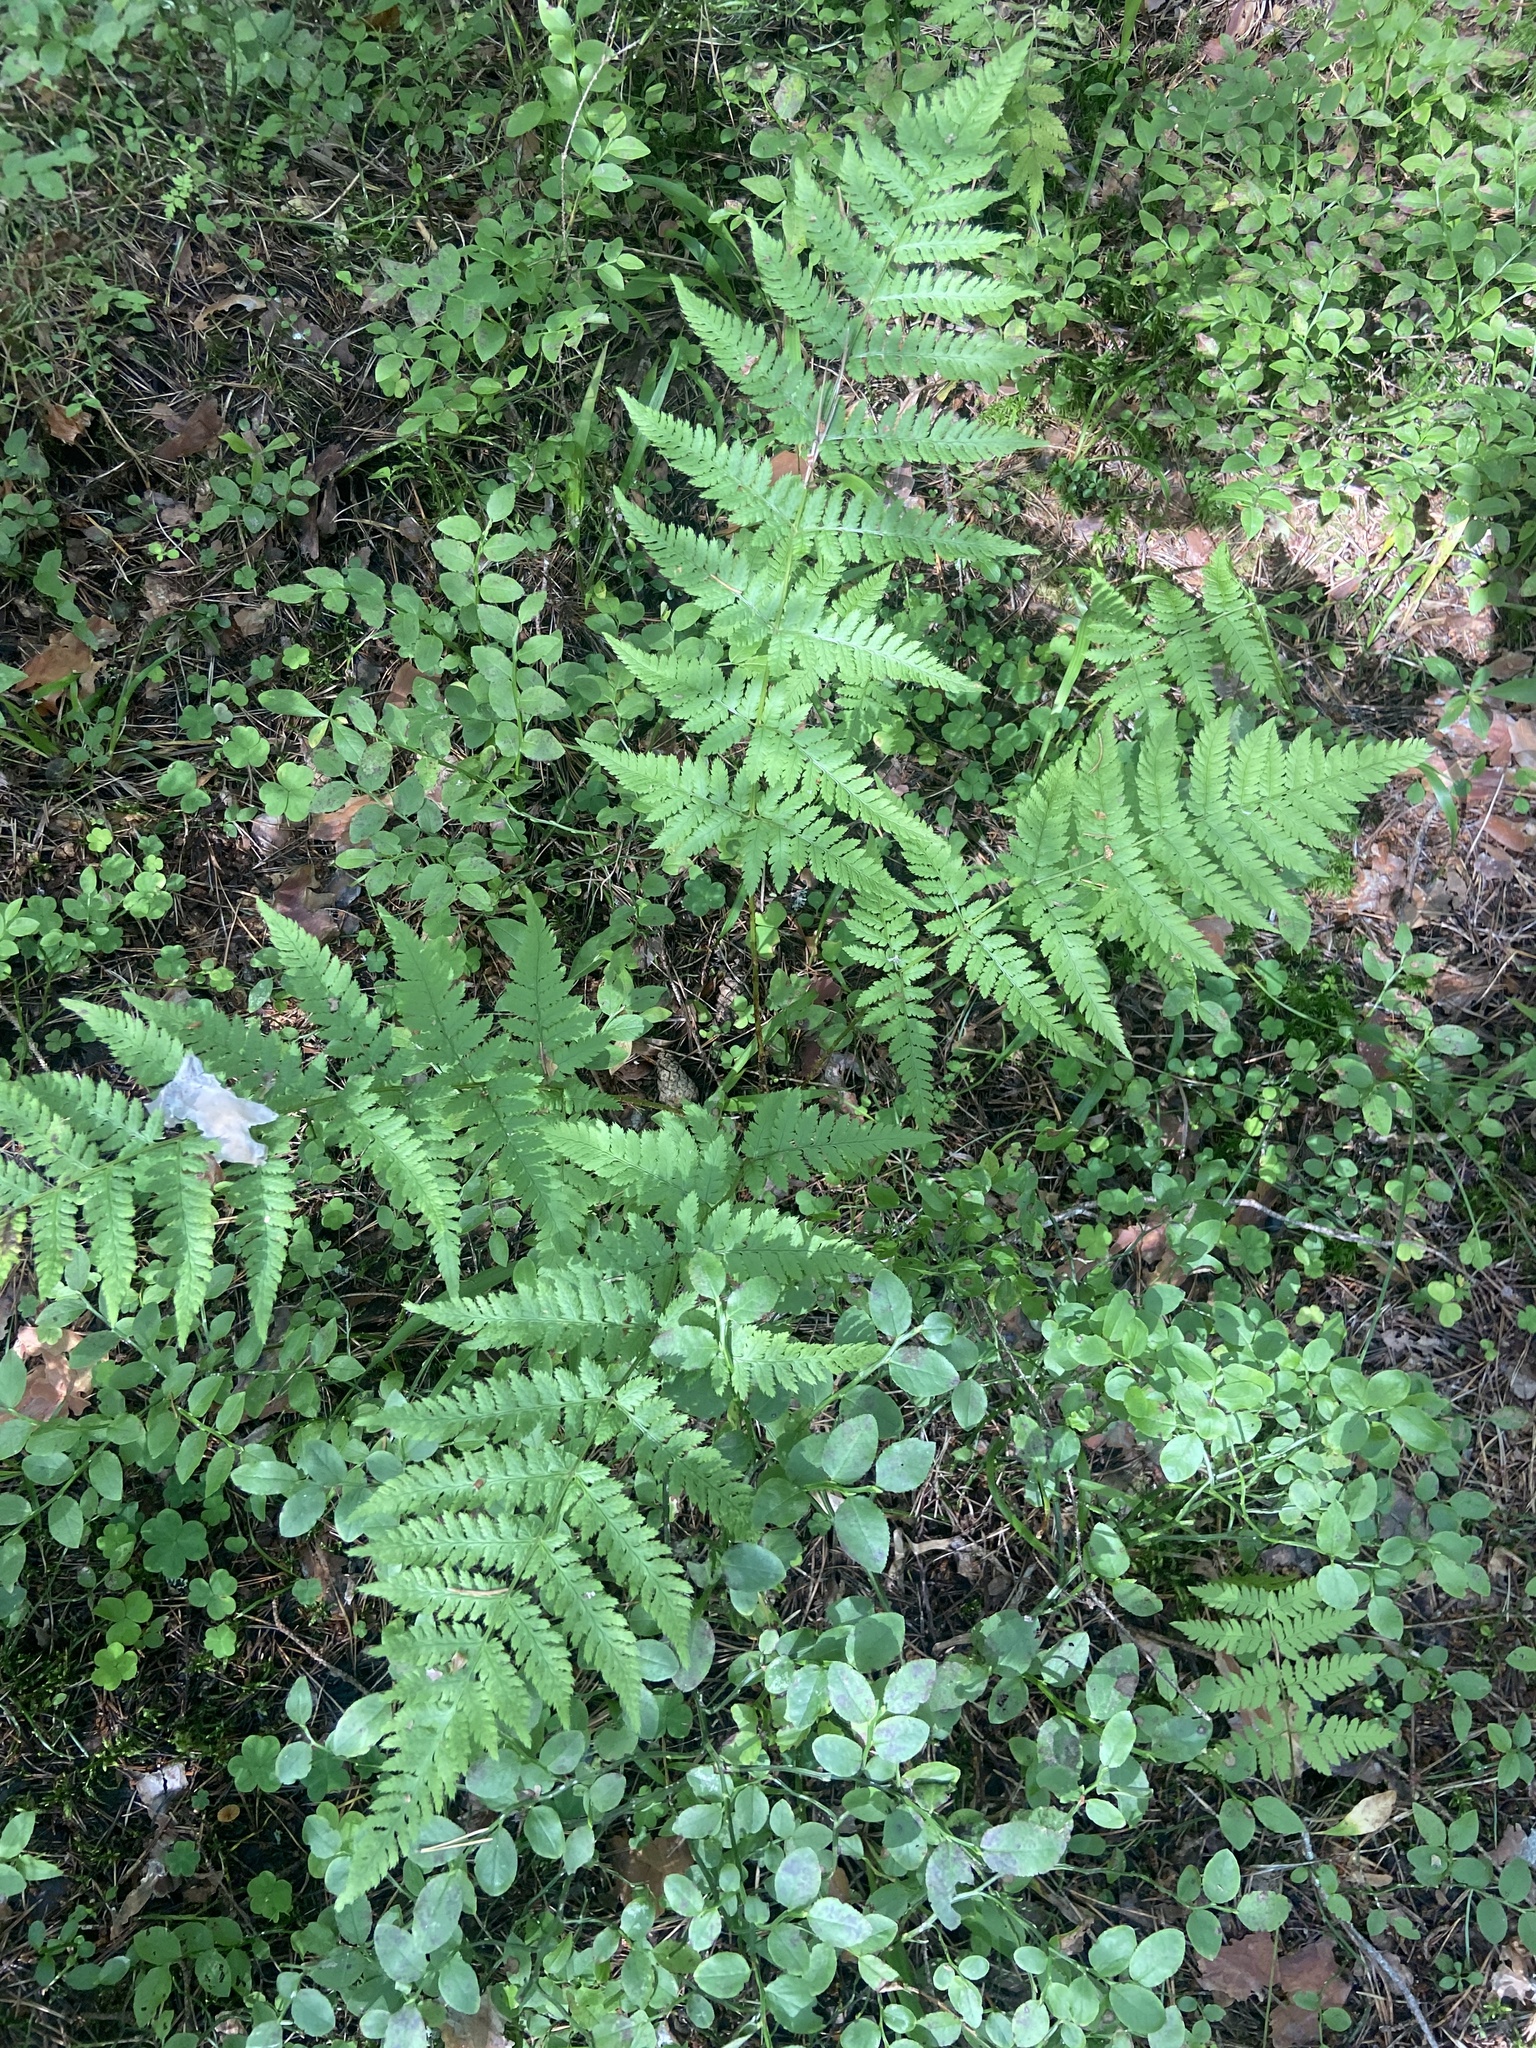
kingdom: Plantae
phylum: Tracheophyta
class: Polypodiopsida
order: Polypodiales
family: Dryopteridaceae
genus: Dryopteris
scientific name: Dryopteris carthusiana
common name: Narrow buckler-fern
